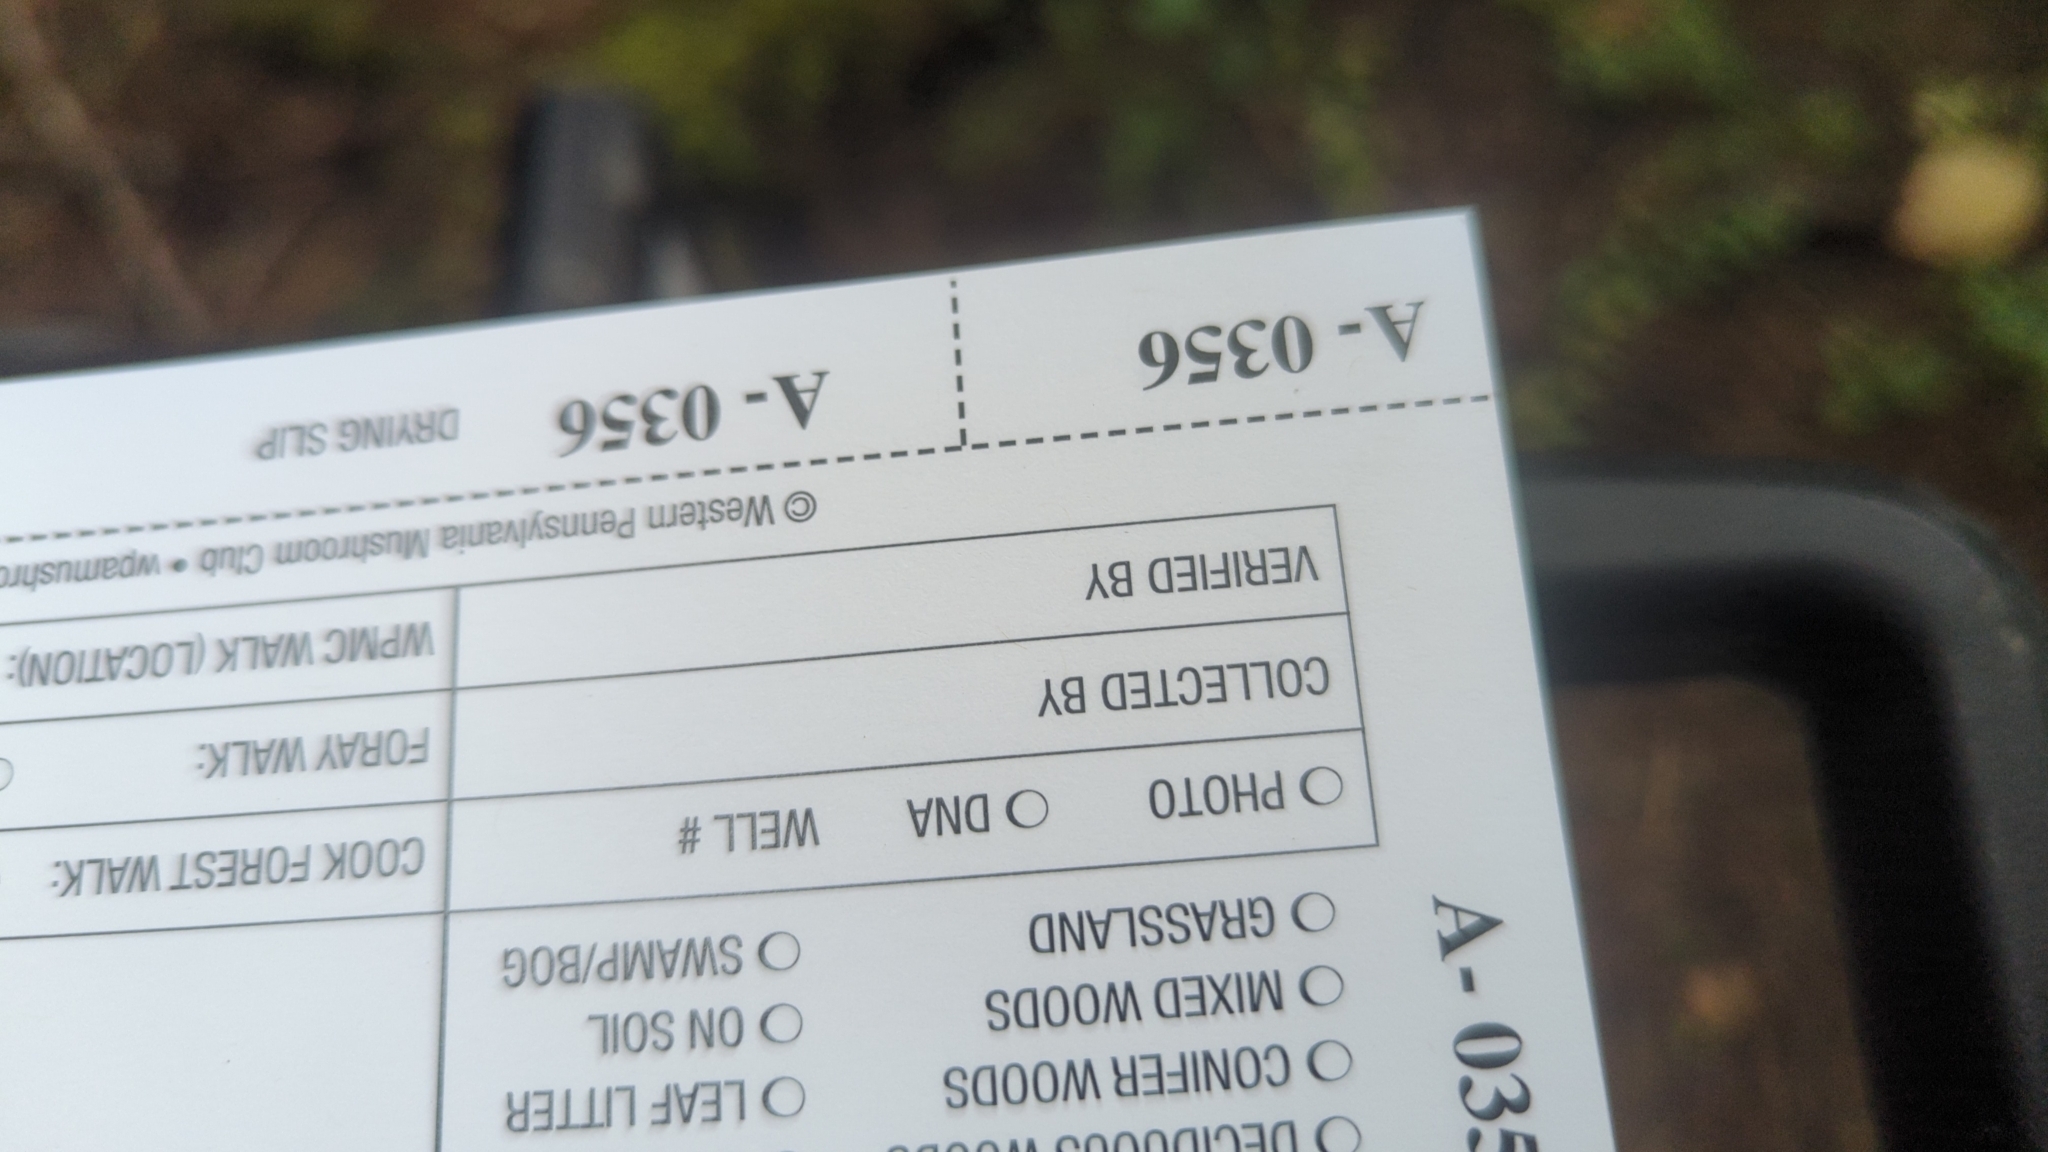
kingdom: Fungi
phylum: Basidiomycota
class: Agaricomycetes
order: Boletales
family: Suillaceae
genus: Suillus
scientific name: Suillus acidus
